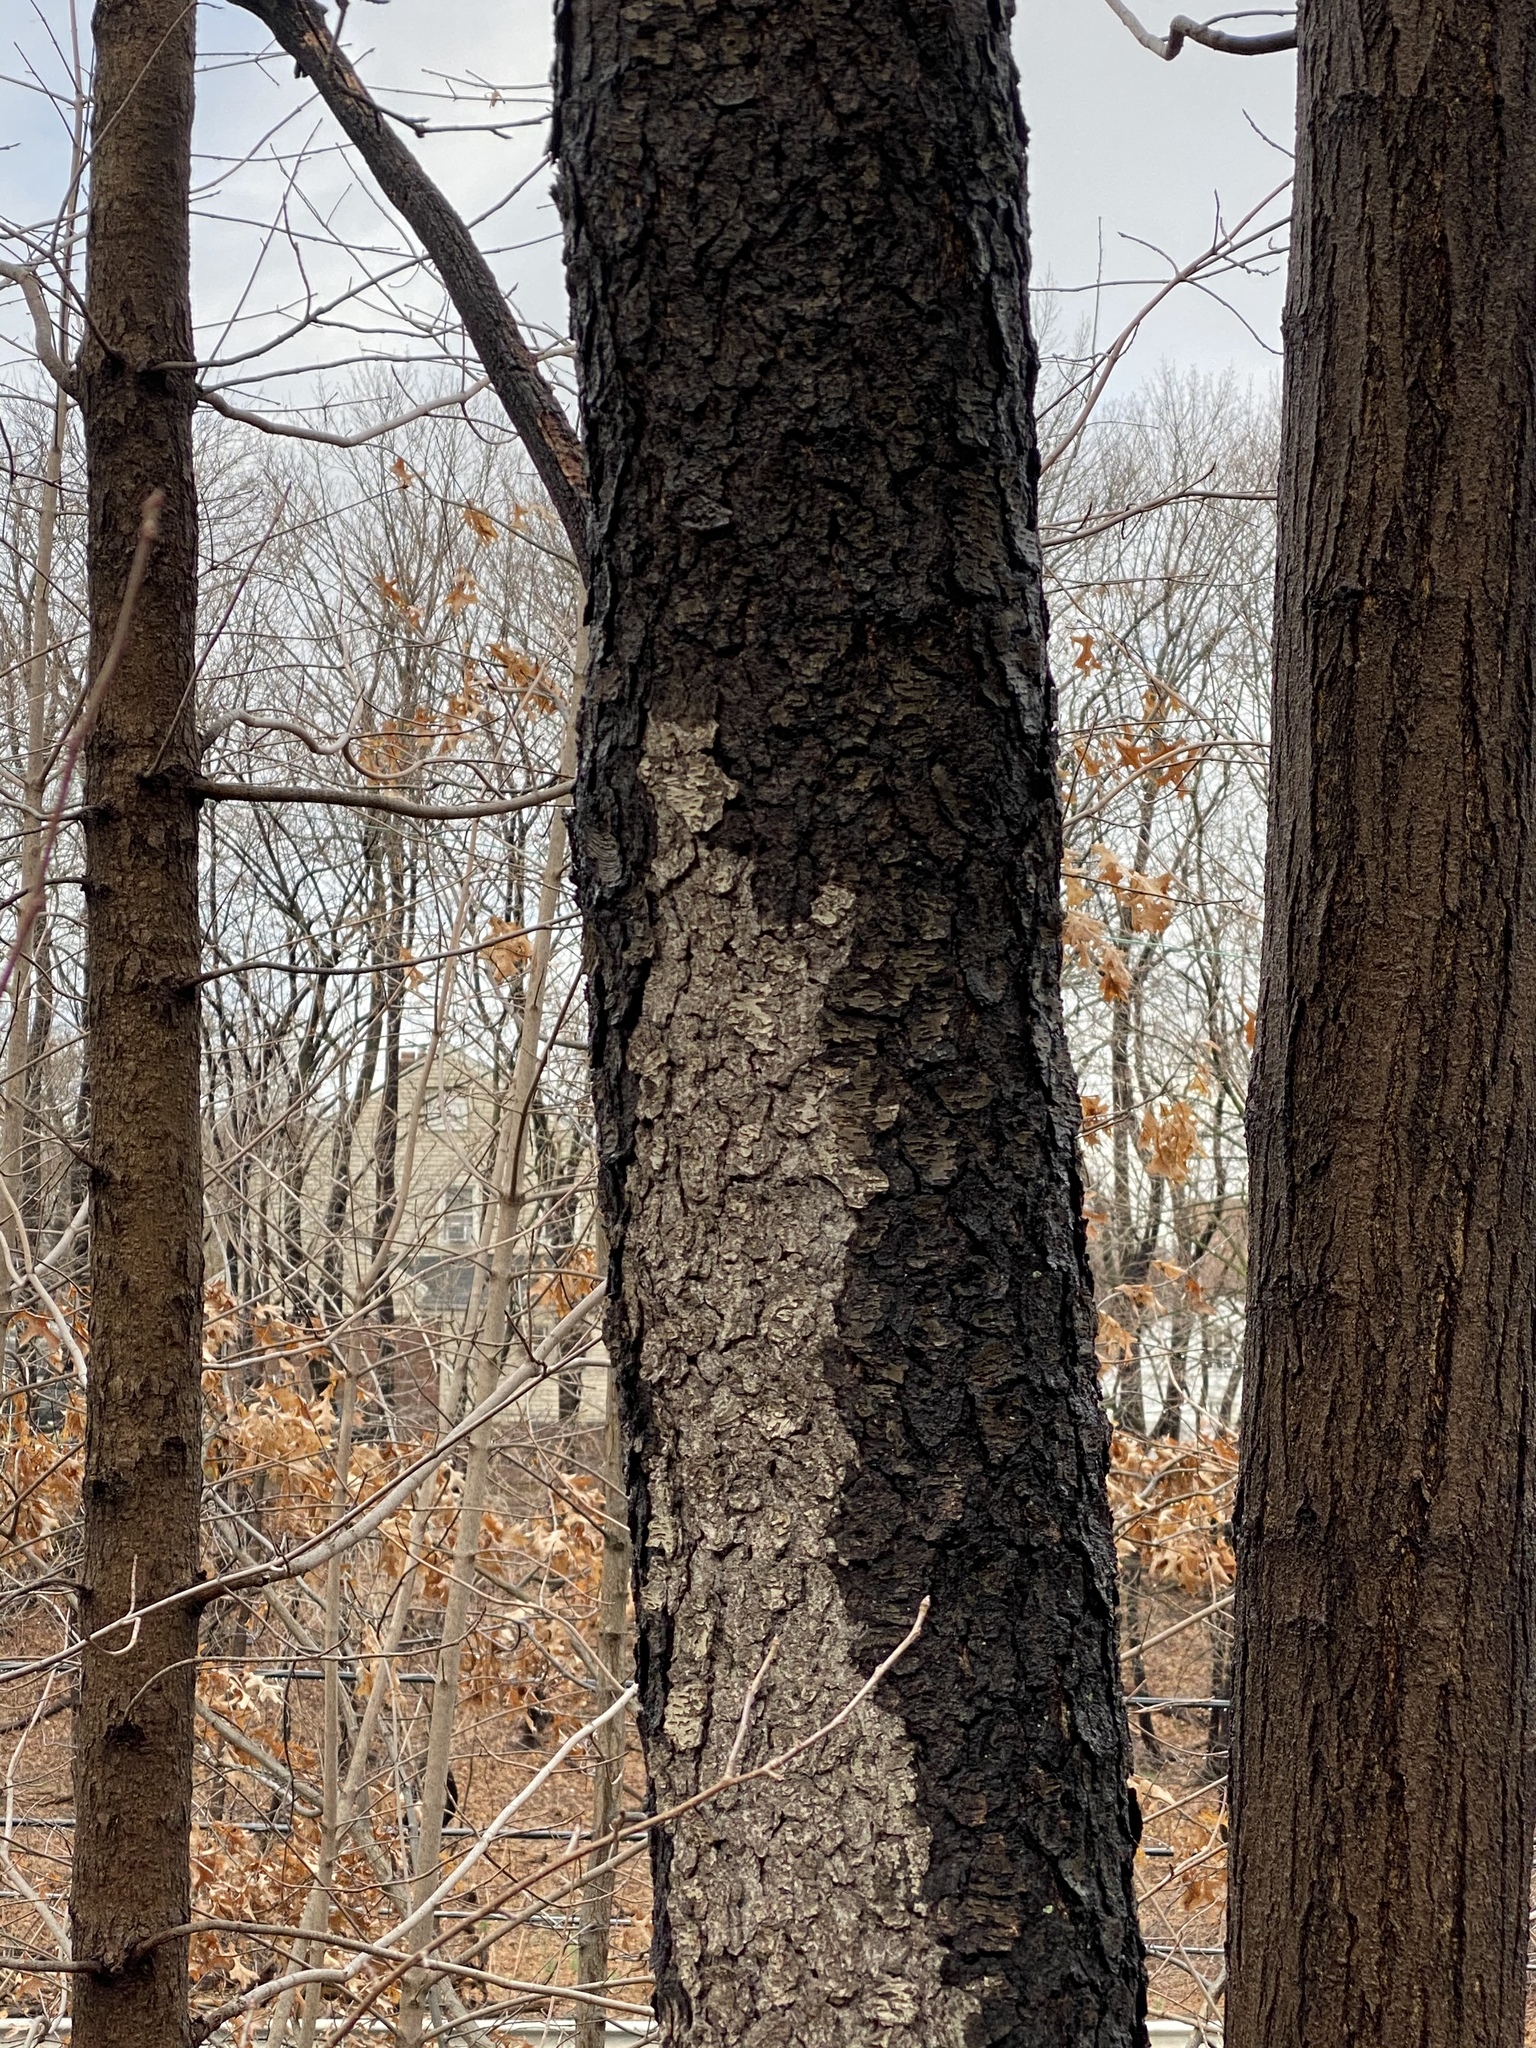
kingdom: Plantae
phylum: Tracheophyta
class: Magnoliopsida
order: Rosales
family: Rosaceae
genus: Prunus
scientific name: Prunus serotina
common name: Black cherry
